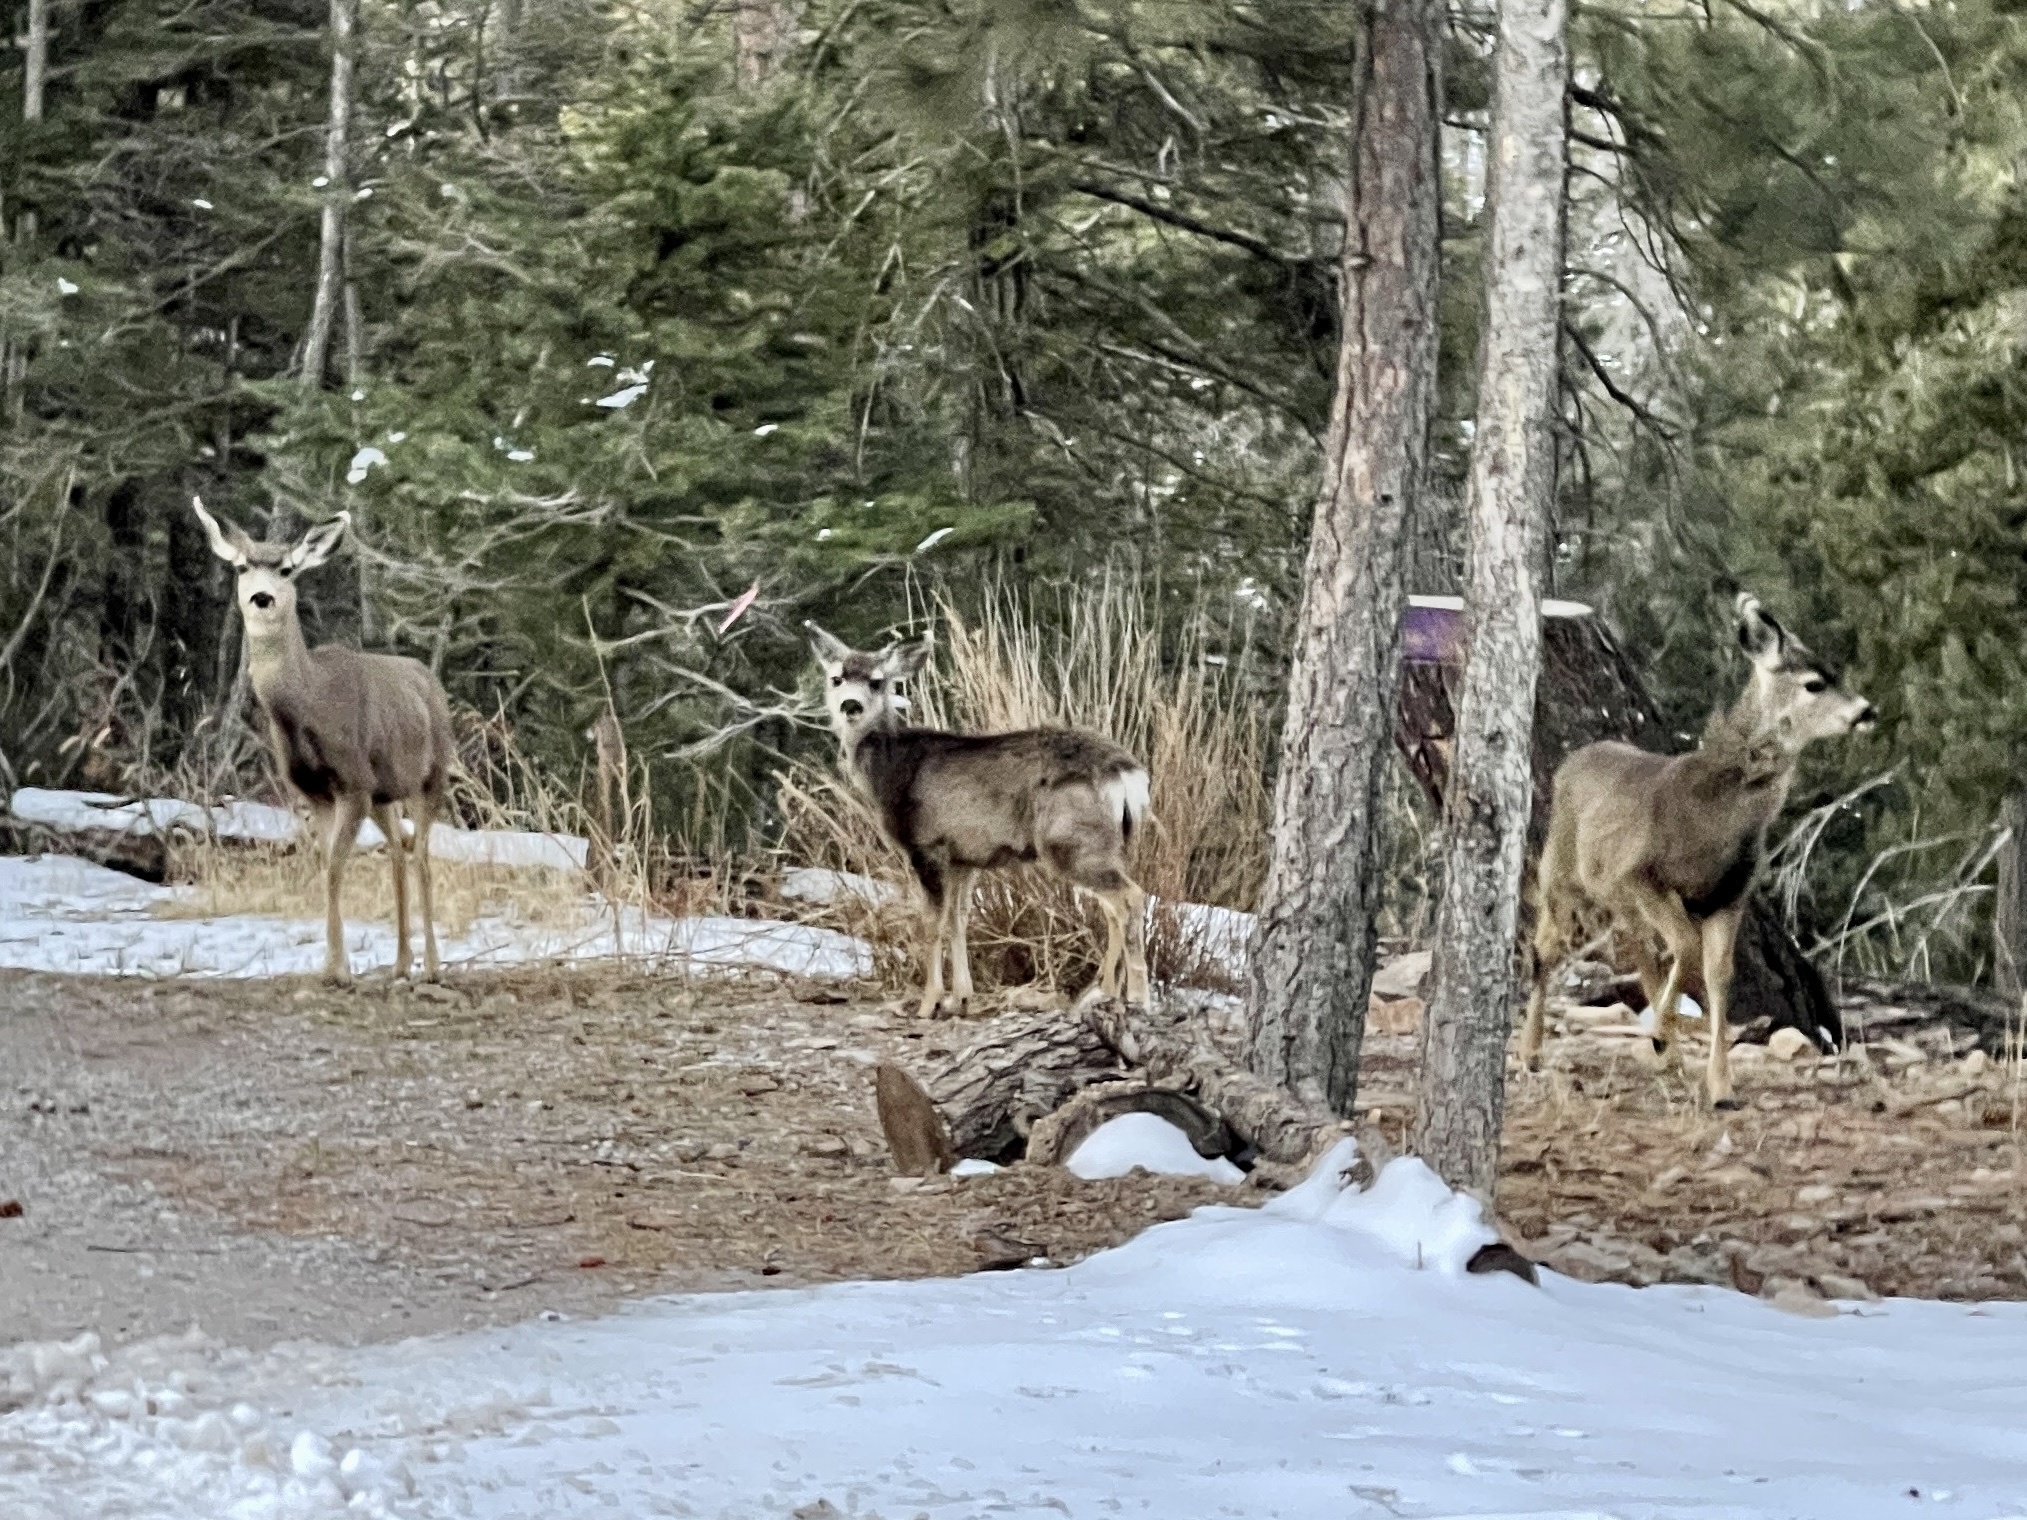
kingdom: Animalia
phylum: Chordata
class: Mammalia
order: Artiodactyla
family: Cervidae
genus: Odocoileus
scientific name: Odocoileus hemionus
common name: Mule deer
